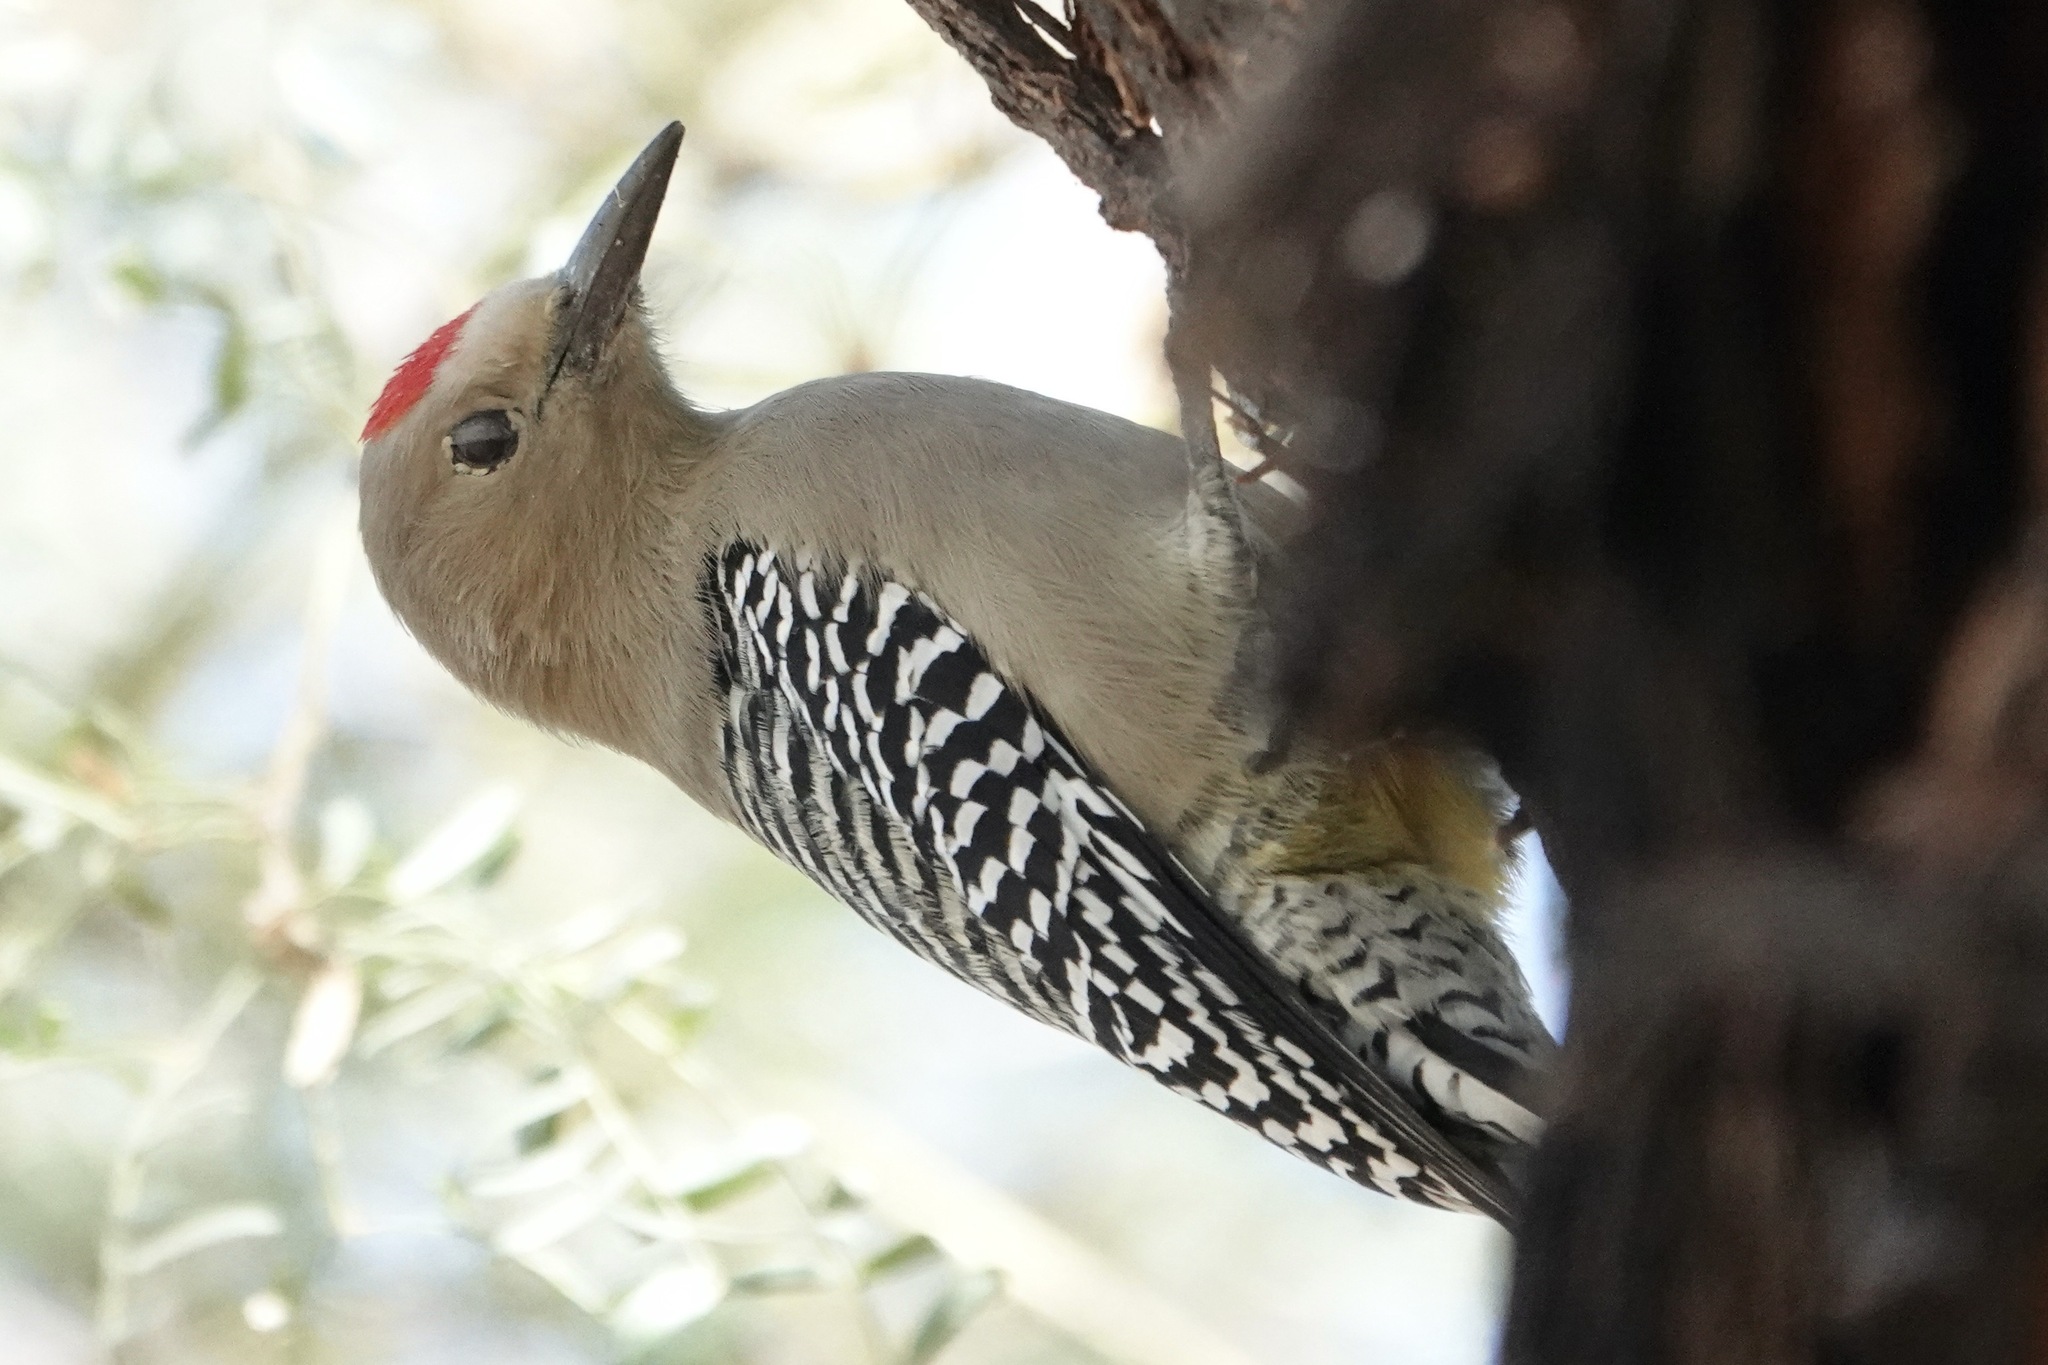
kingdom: Animalia
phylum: Chordata
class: Aves
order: Piciformes
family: Picidae
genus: Melanerpes
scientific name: Melanerpes uropygialis
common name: Gila woodpecker
